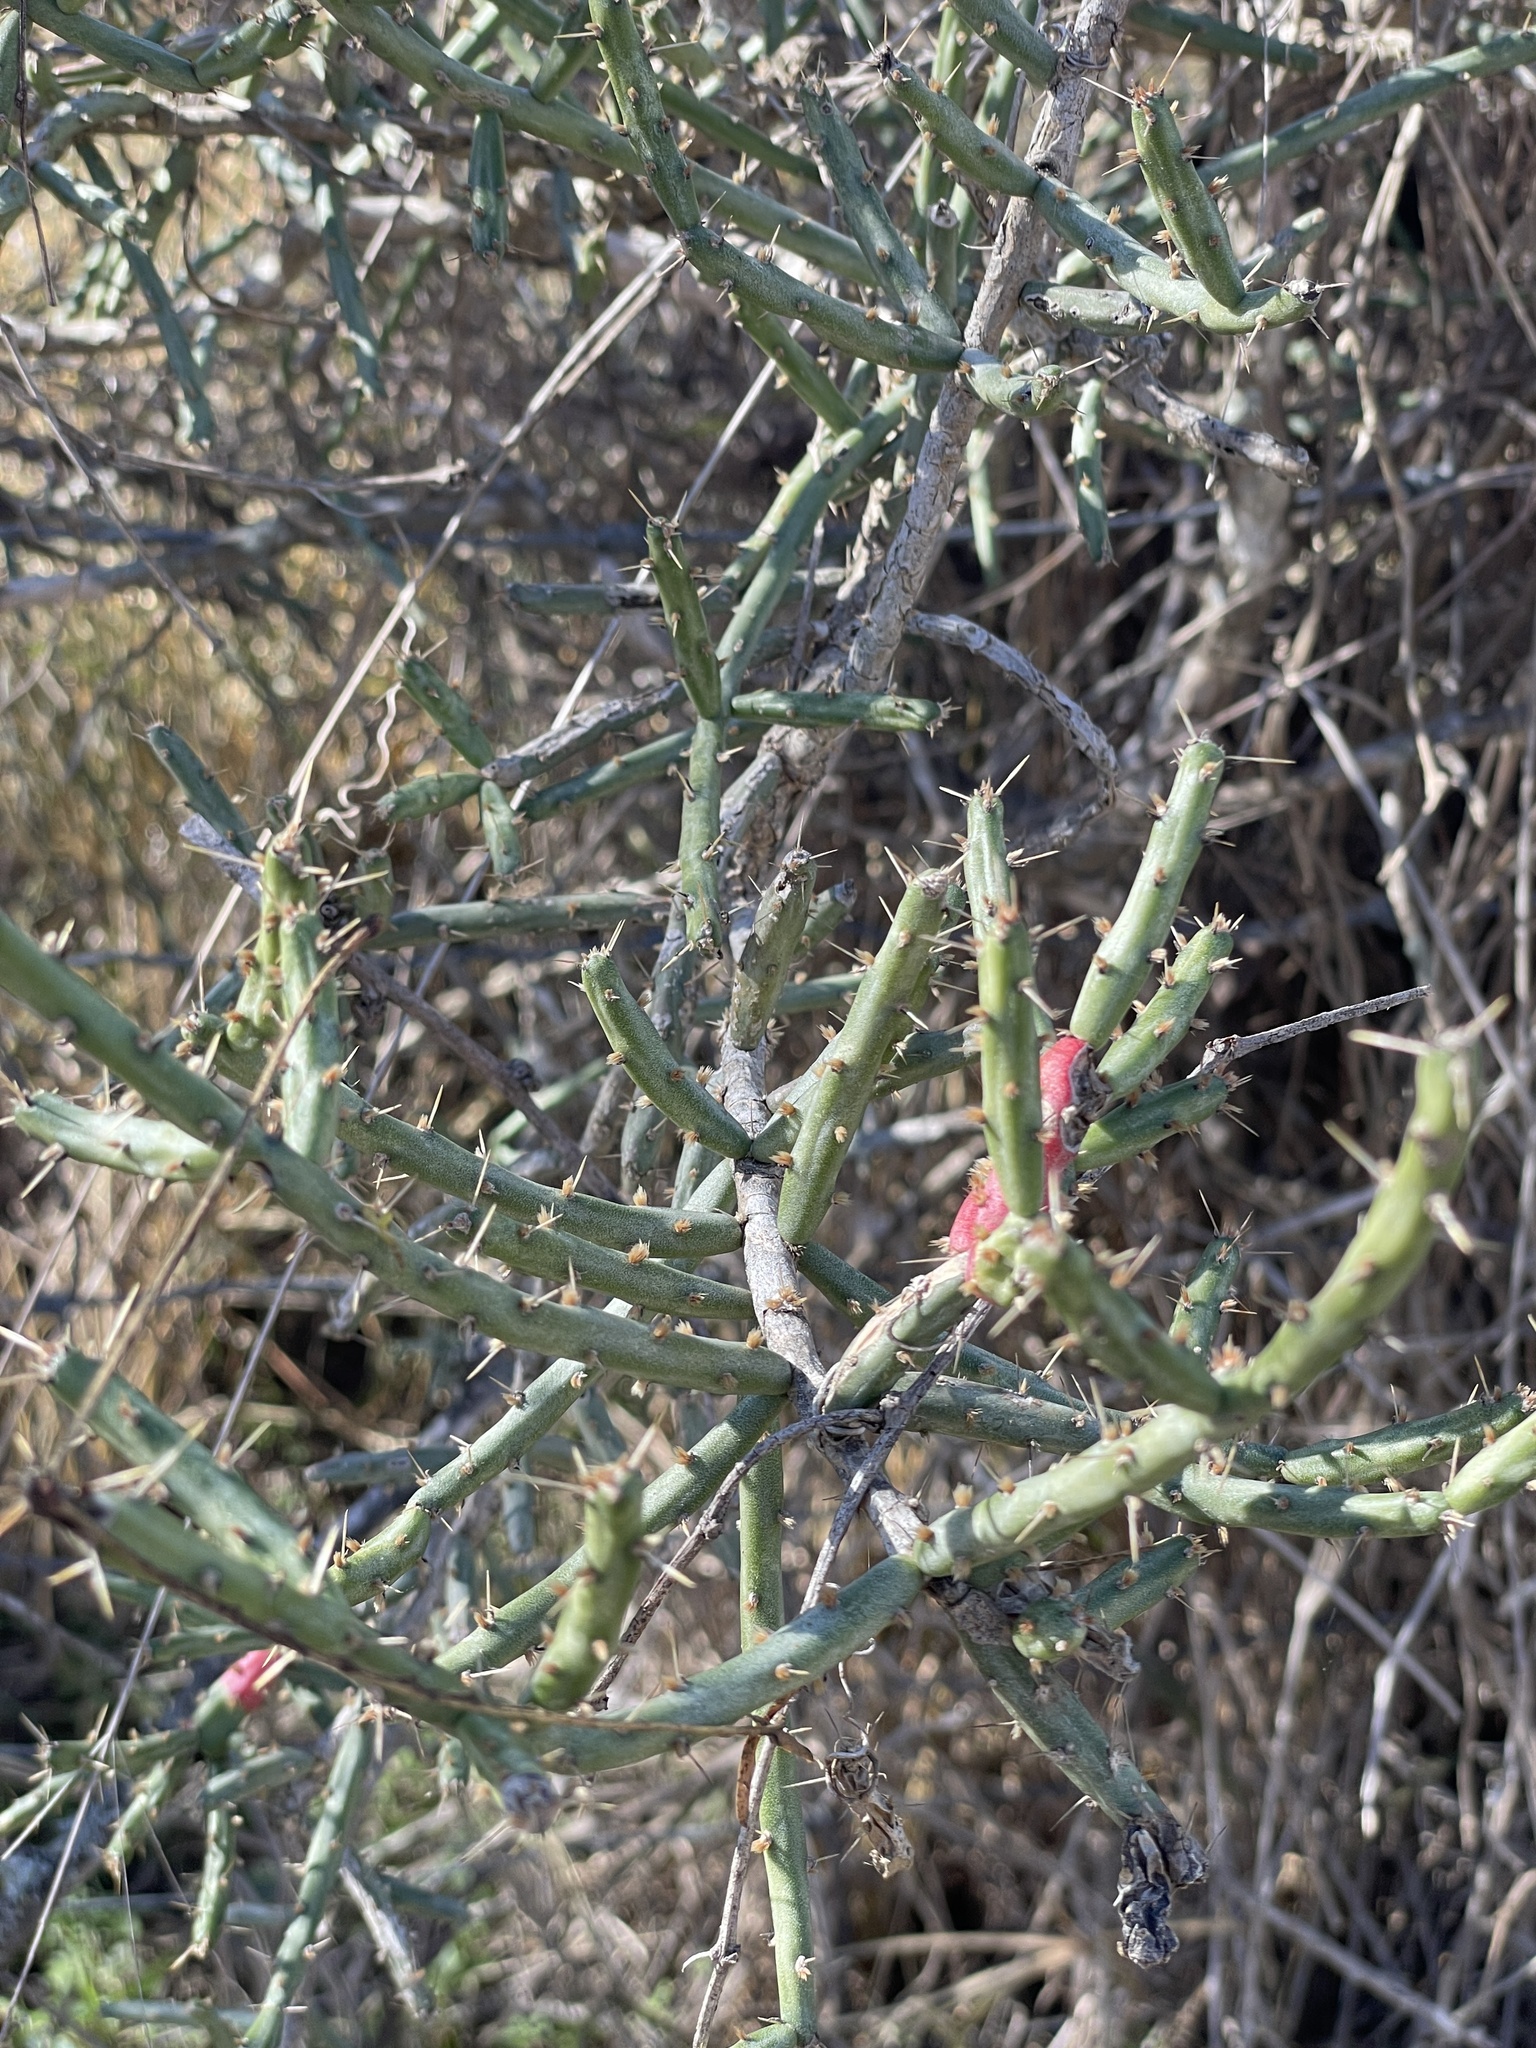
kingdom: Plantae
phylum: Tracheophyta
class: Magnoliopsida
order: Caryophyllales
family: Cactaceae
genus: Cylindropuntia
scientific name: Cylindropuntia leptocaulis
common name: Christmas cactus
